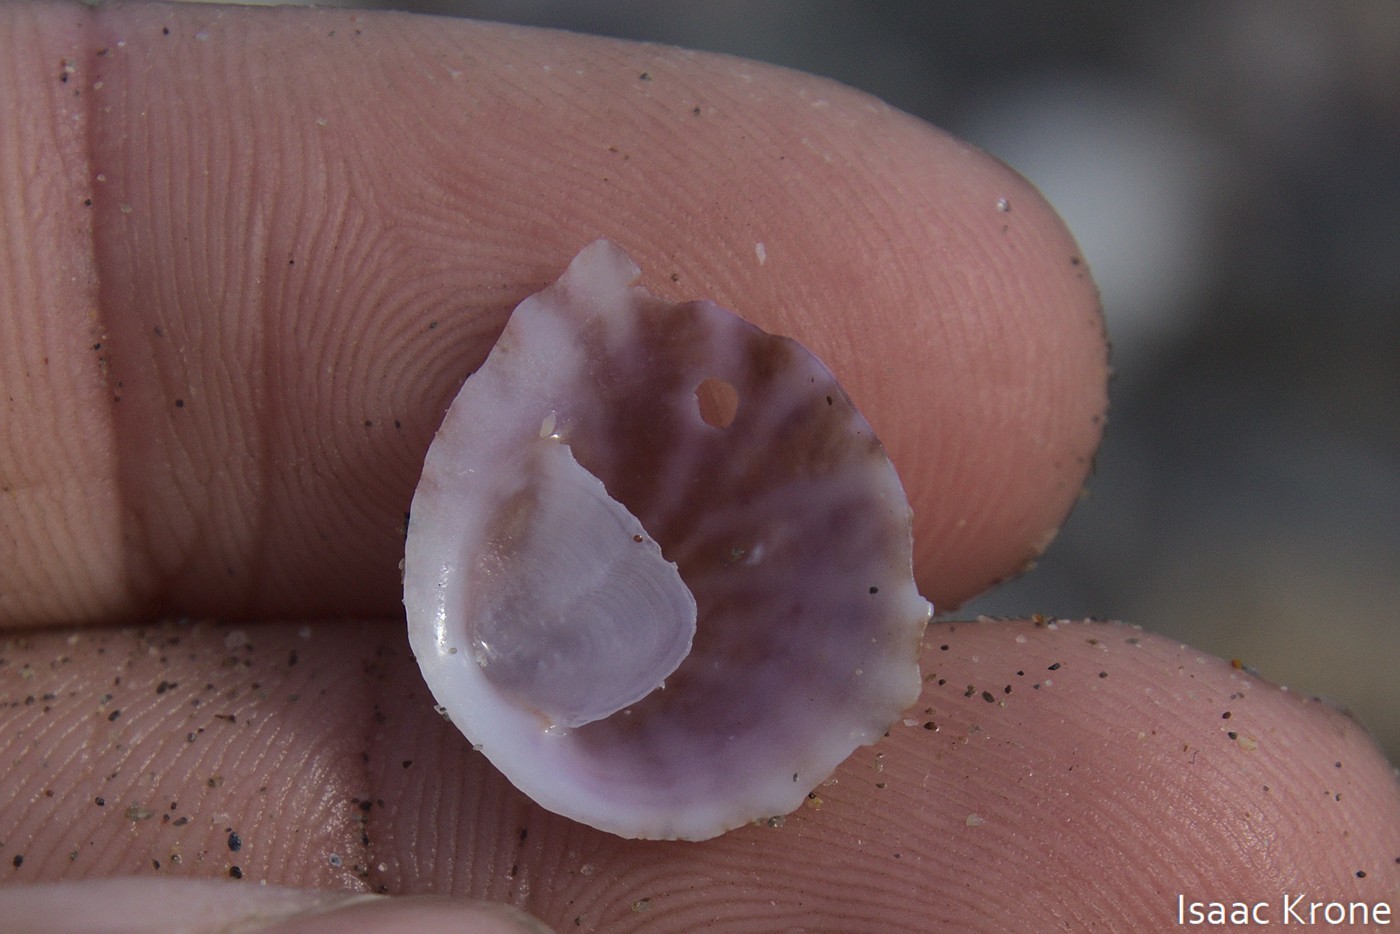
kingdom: Animalia
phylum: Mollusca
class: Gastropoda
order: Littorinimorpha
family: Calyptraeidae
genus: Crepipatella
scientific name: Crepipatella lingulata
